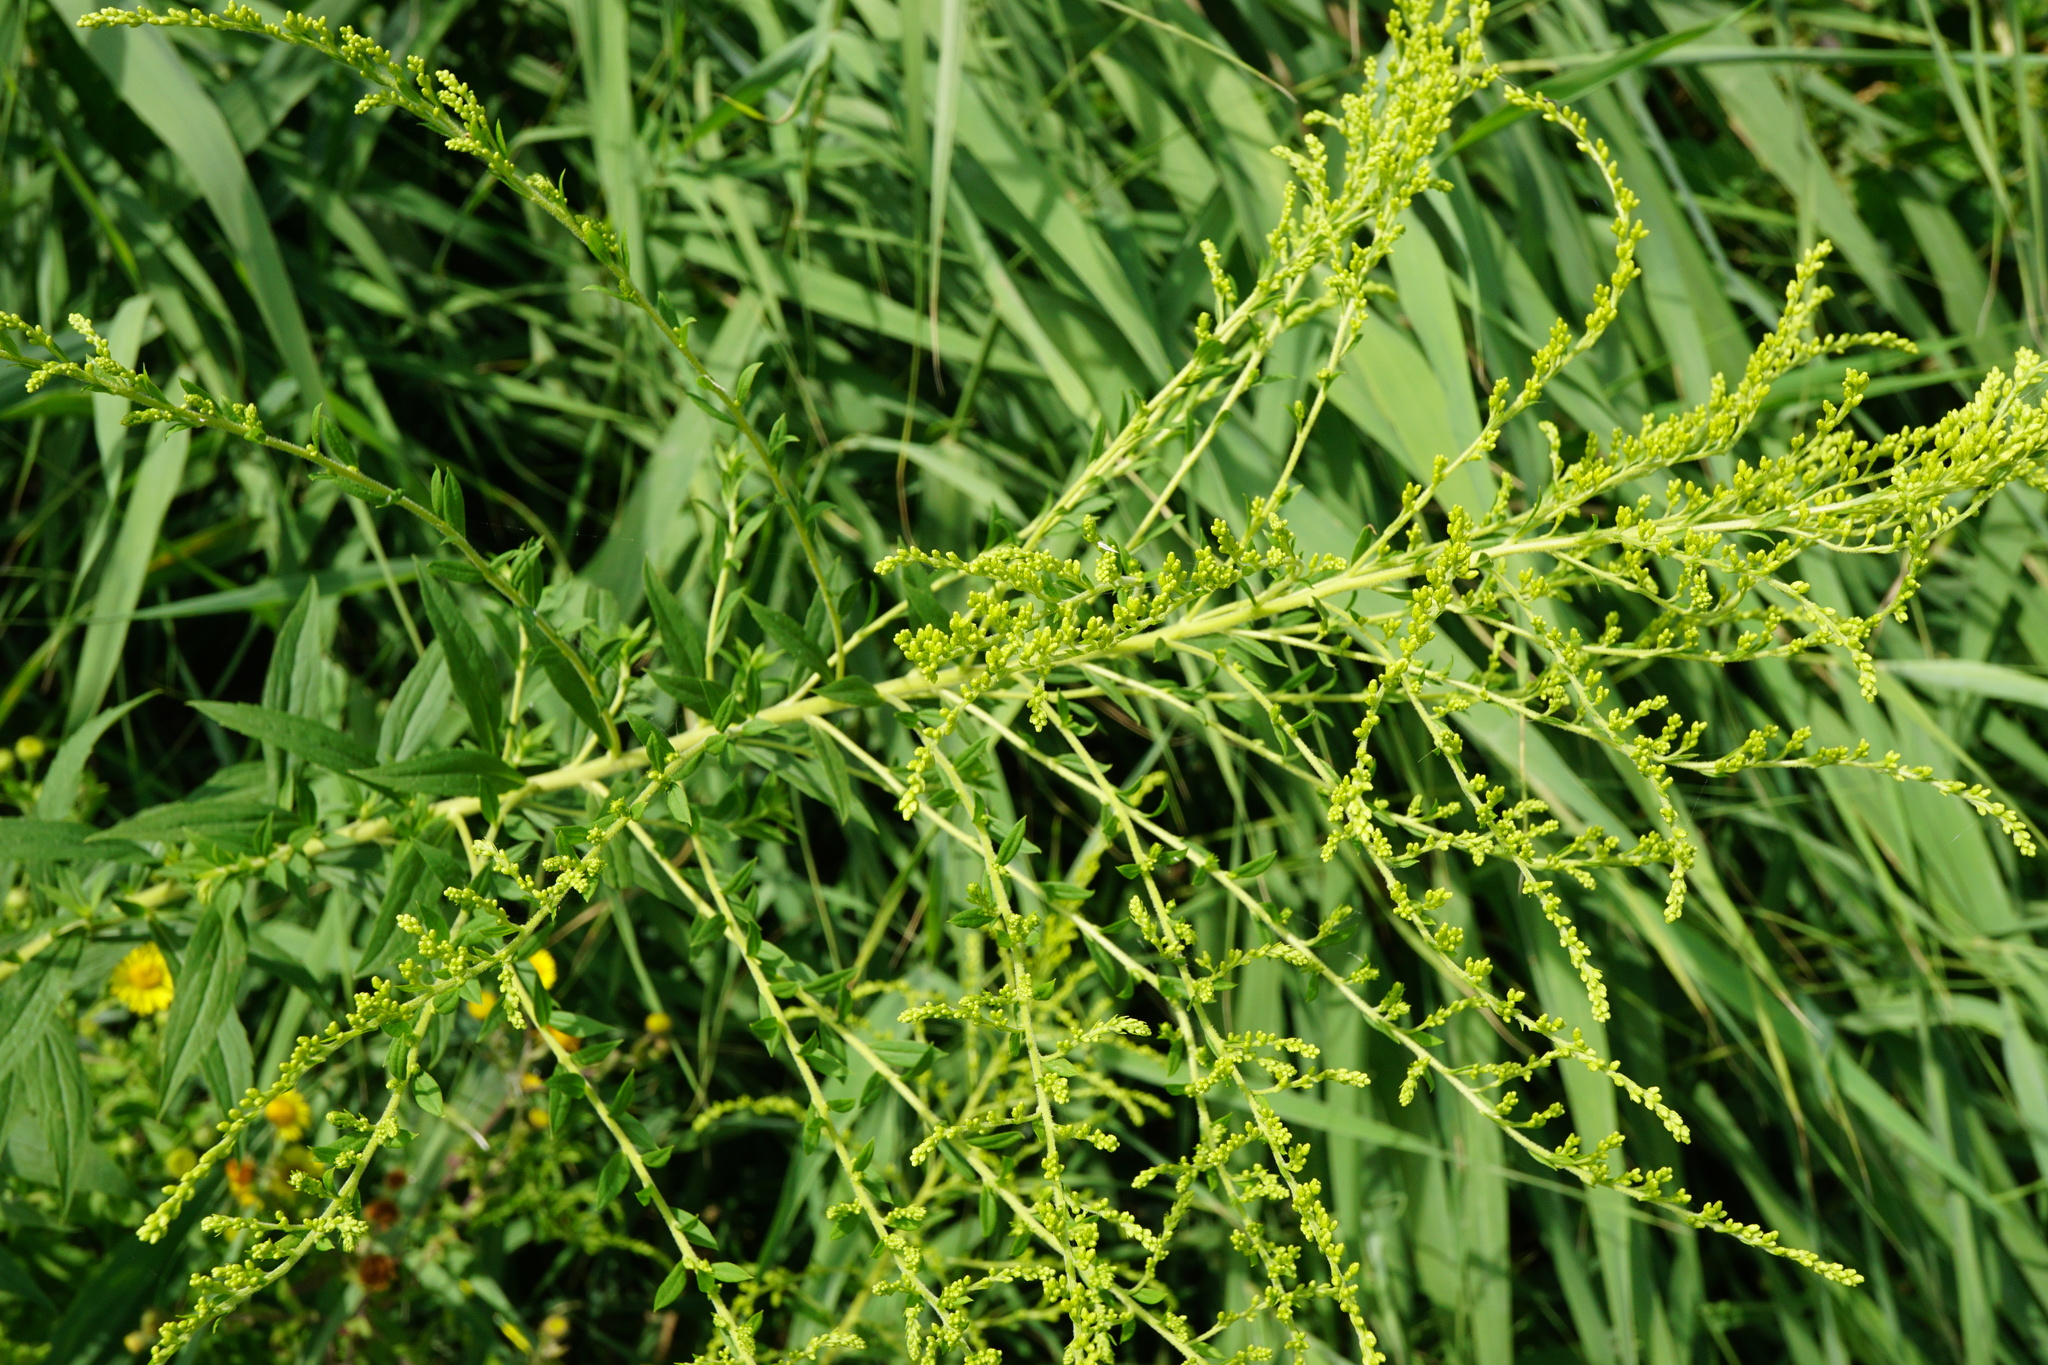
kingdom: Plantae
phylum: Tracheophyta
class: Magnoliopsida
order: Asterales
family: Asteraceae
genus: Solidago
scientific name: Solidago canadensis
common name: Canada goldenrod
